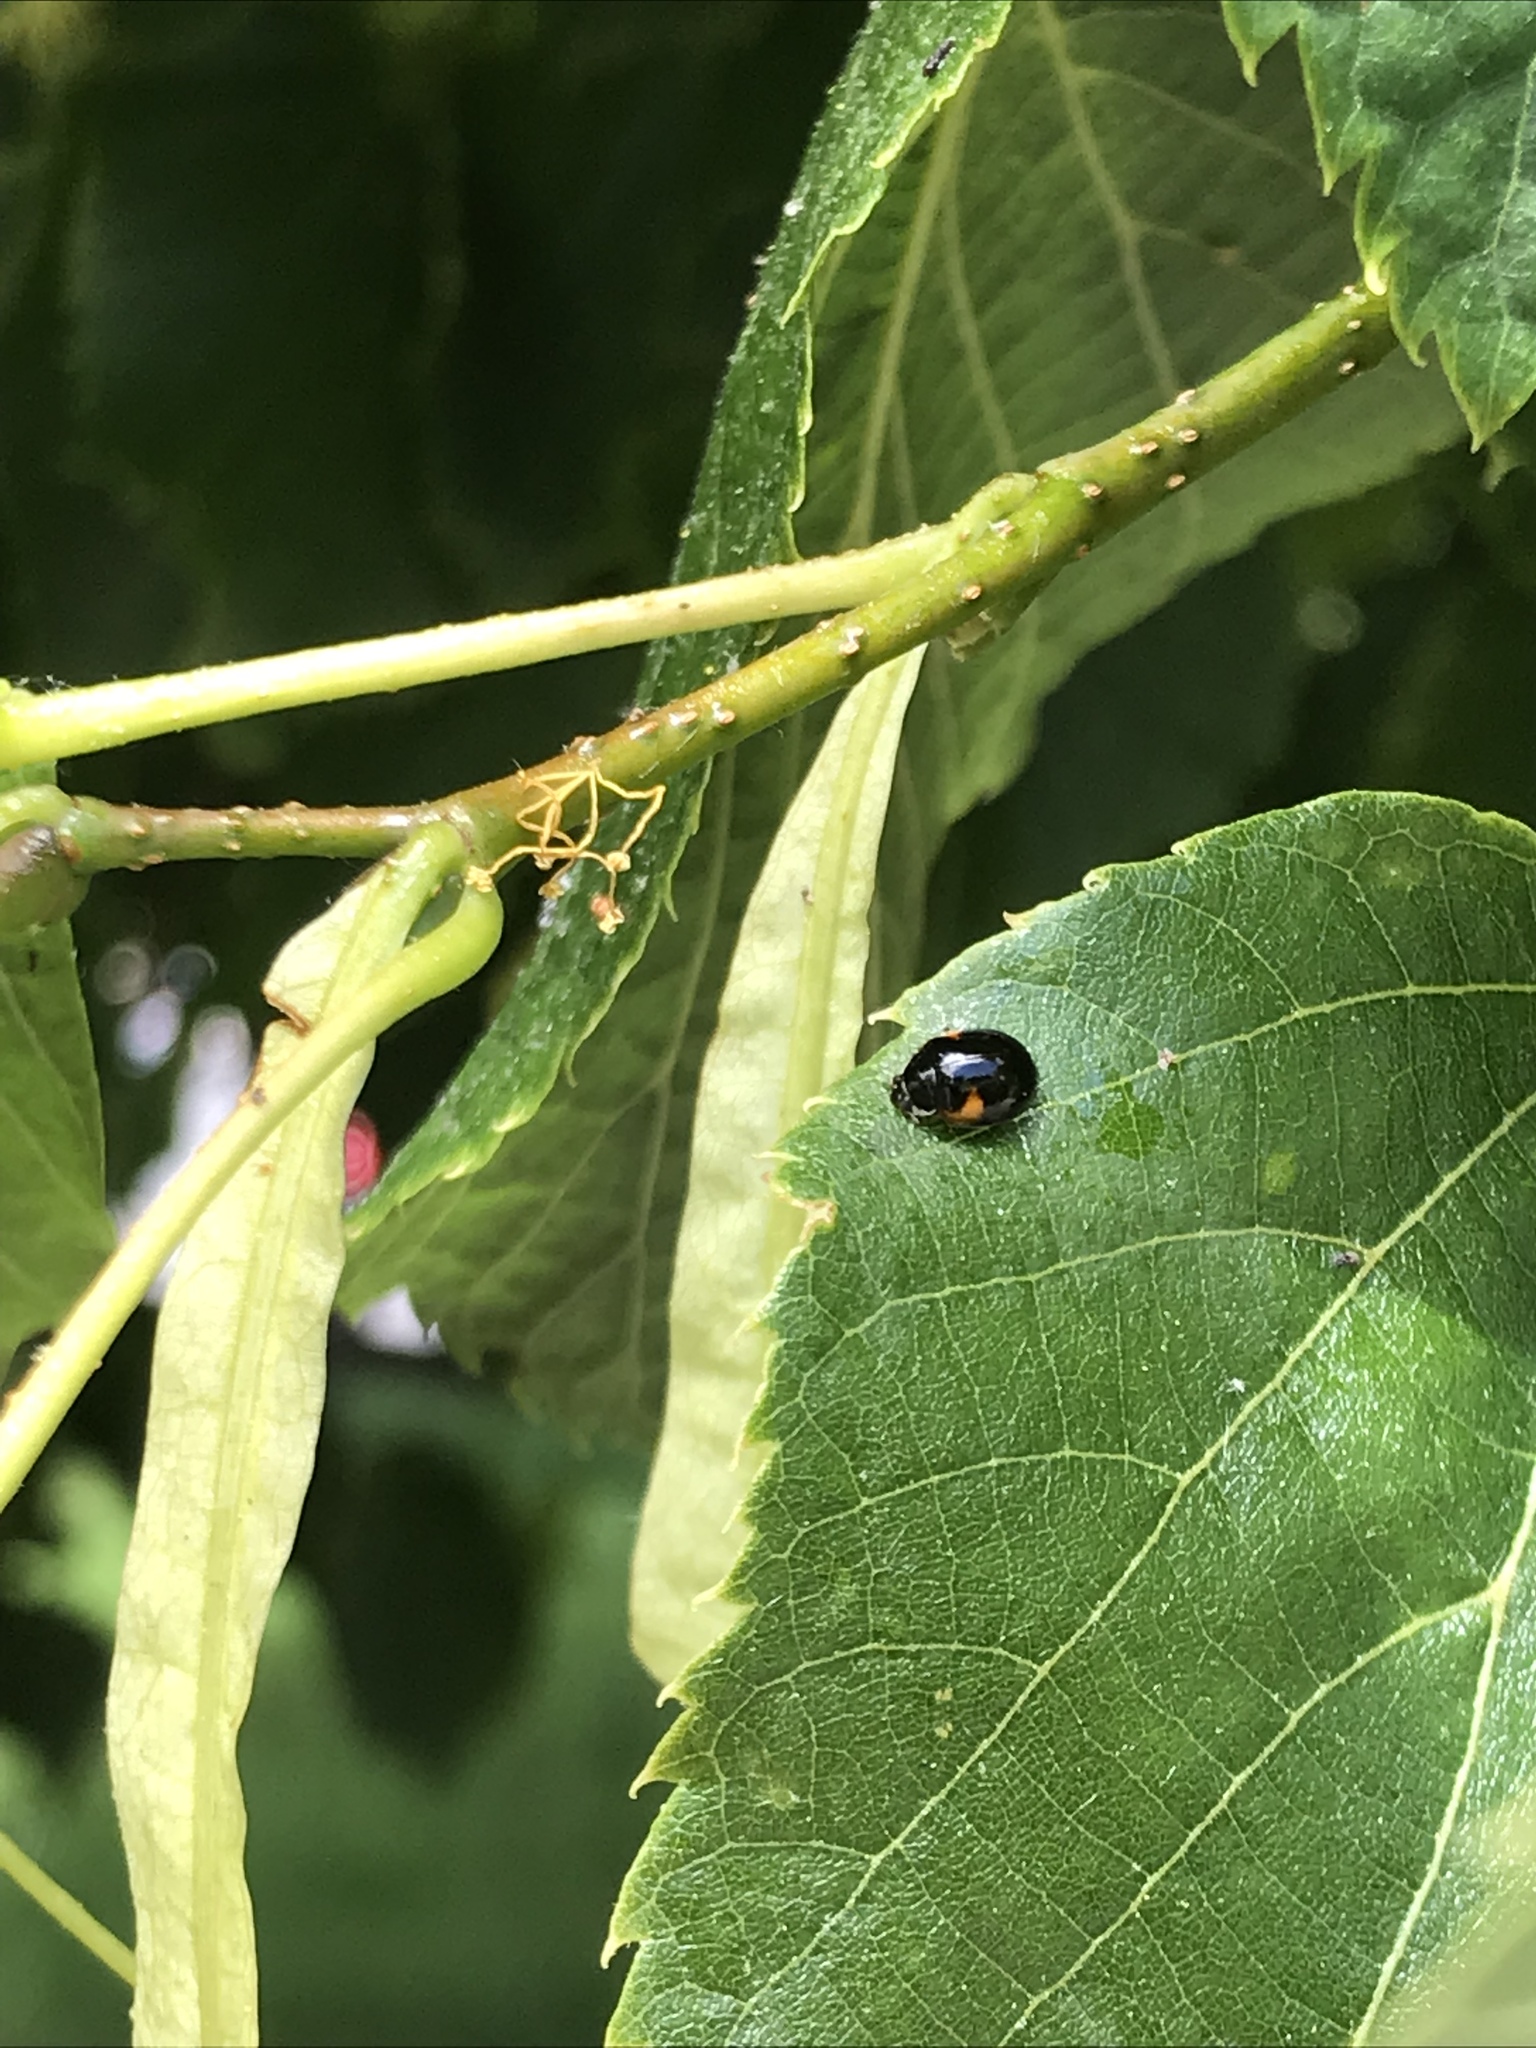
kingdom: Animalia
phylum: Arthropoda
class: Insecta
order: Coleoptera
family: Coccinellidae
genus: Adalia
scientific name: Adalia decempunctata
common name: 10-spot ladybird
